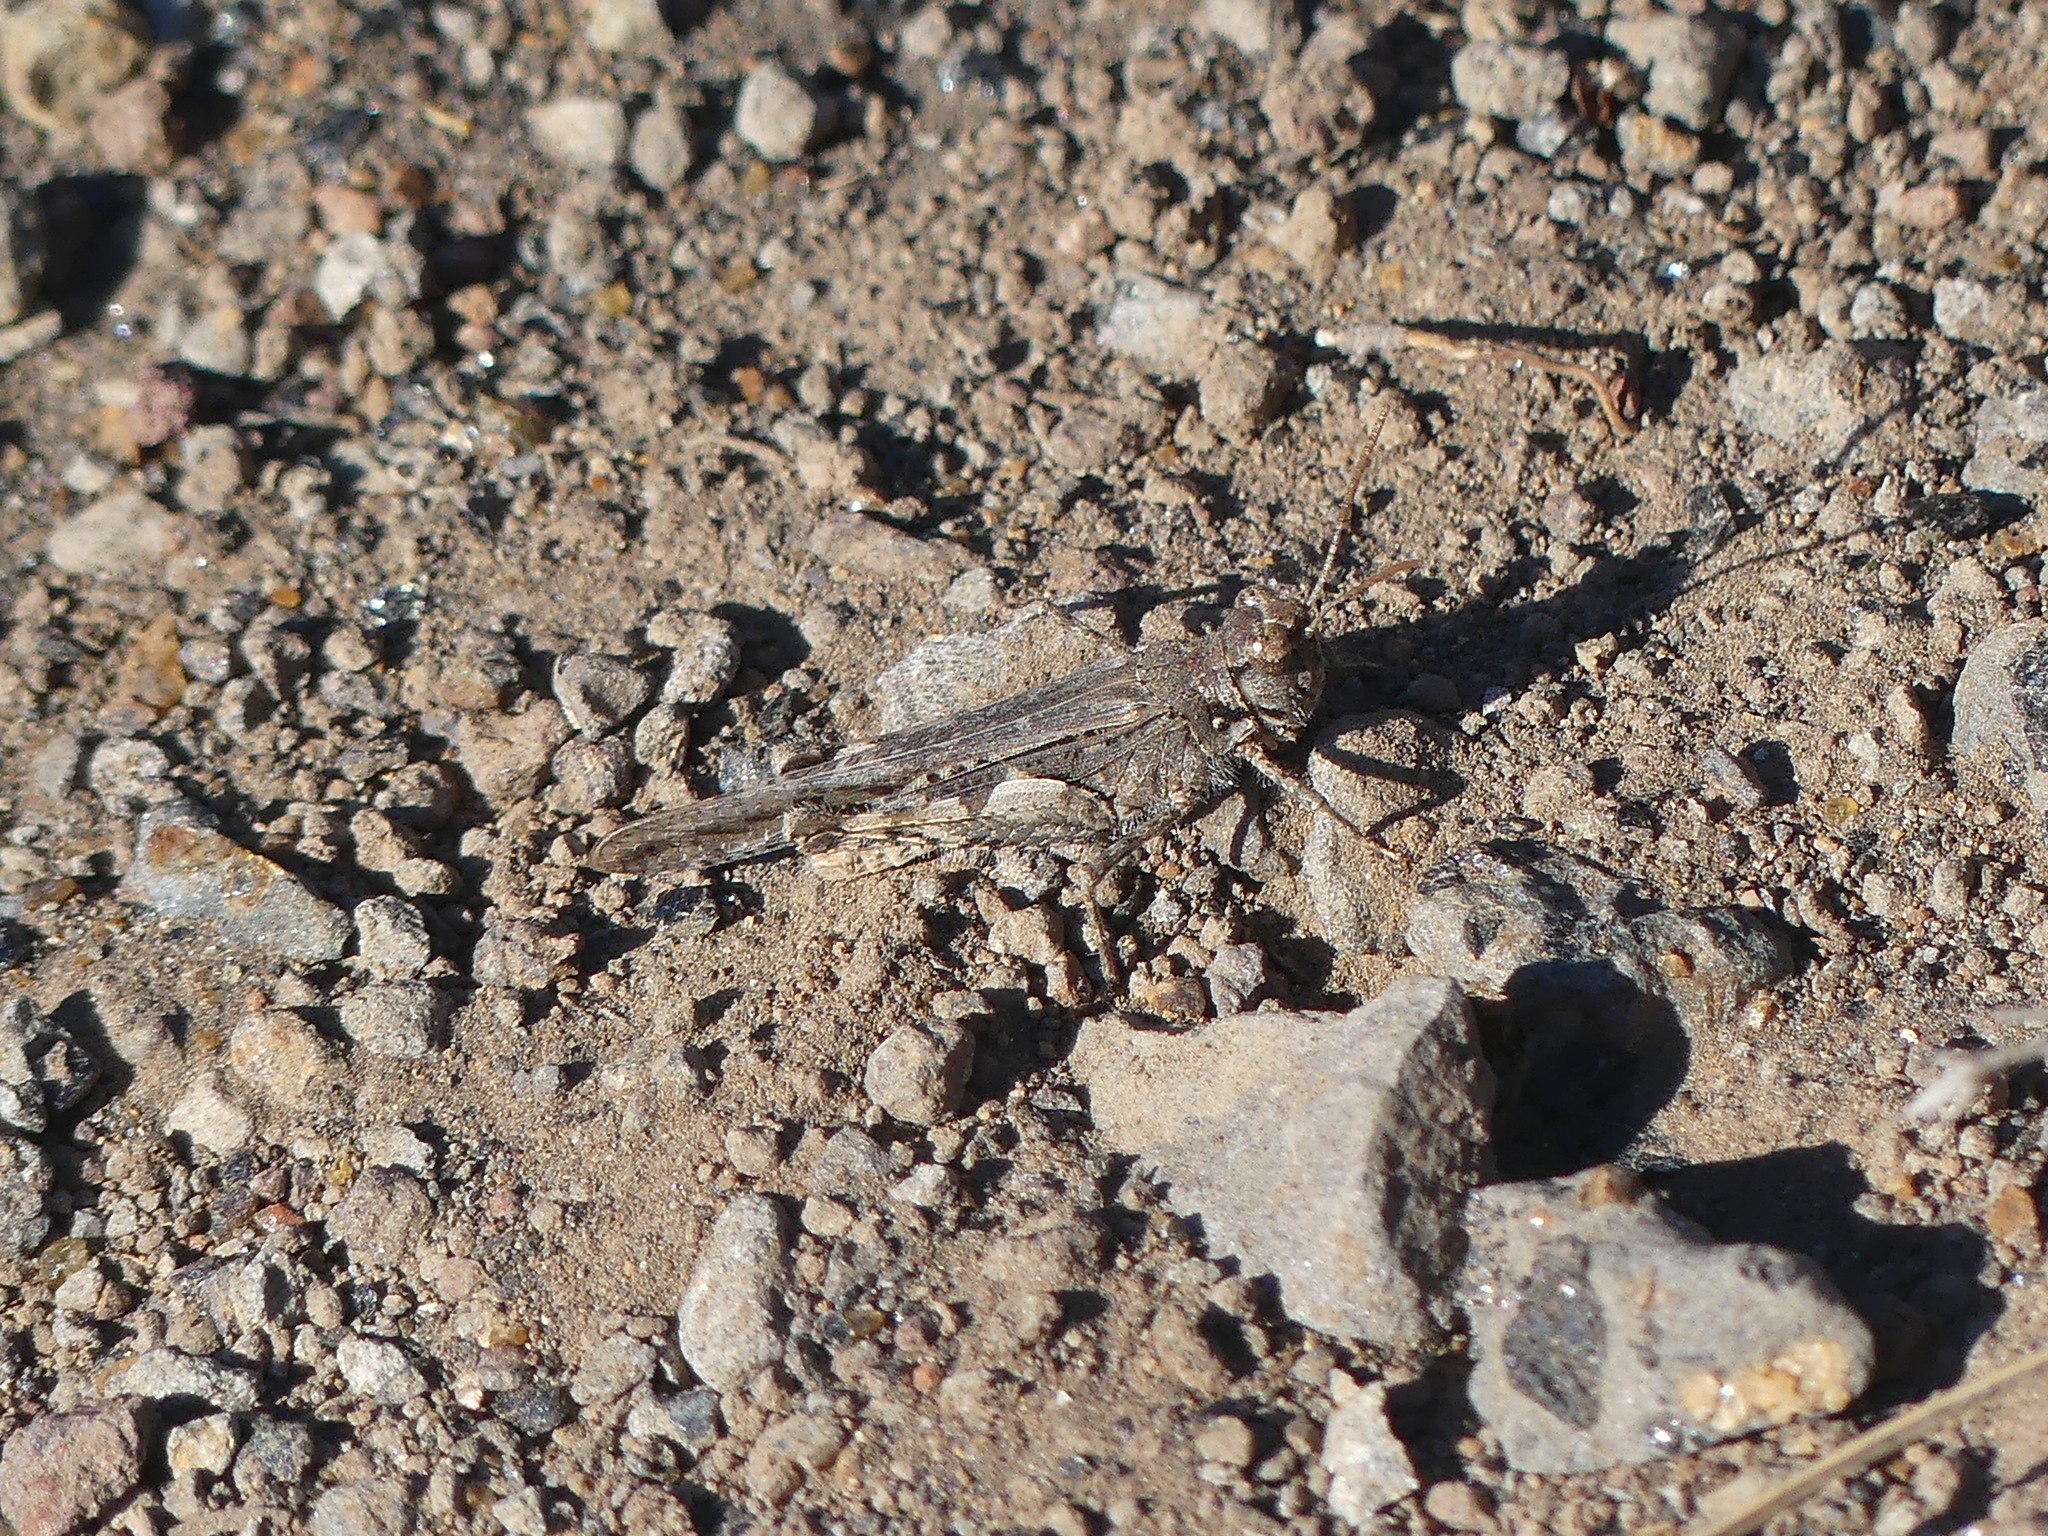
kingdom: Animalia
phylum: Arthropoda
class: Insecta
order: Orthoptera
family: Acrididae
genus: Acrotylus
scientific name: Acrotylus insubricus
